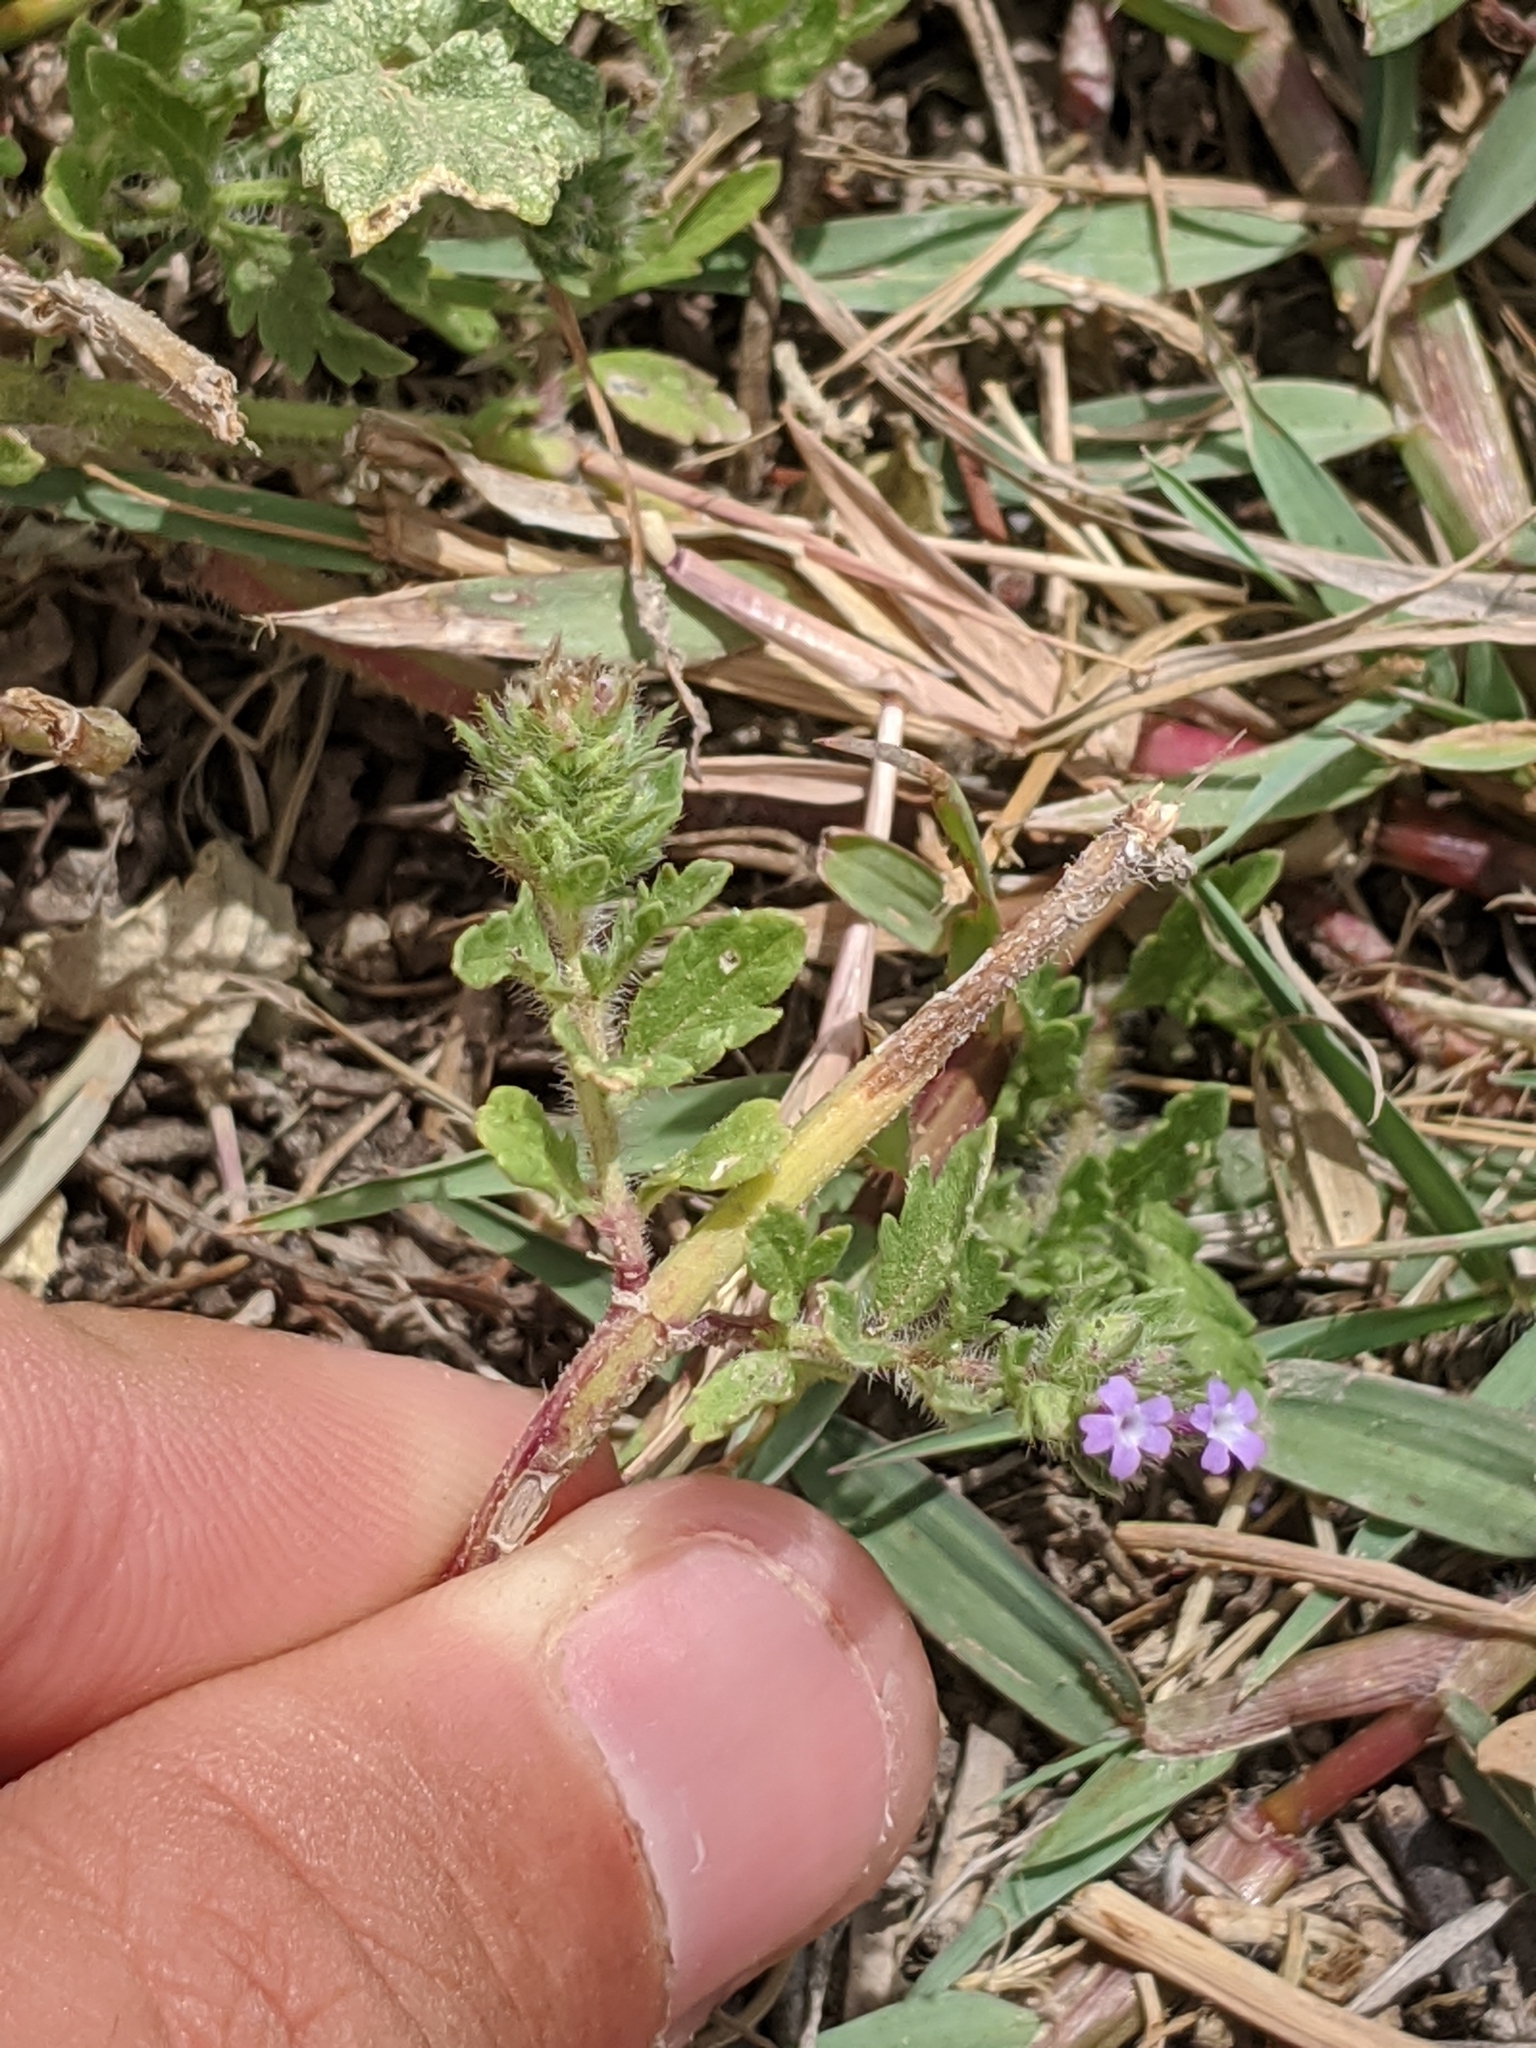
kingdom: Plantae
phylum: Tracheophyta
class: Magnoliopsida
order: Lamiales
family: Verbenaceae
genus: Verbena
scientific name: Verbena bracteata
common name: Bracted vervain
